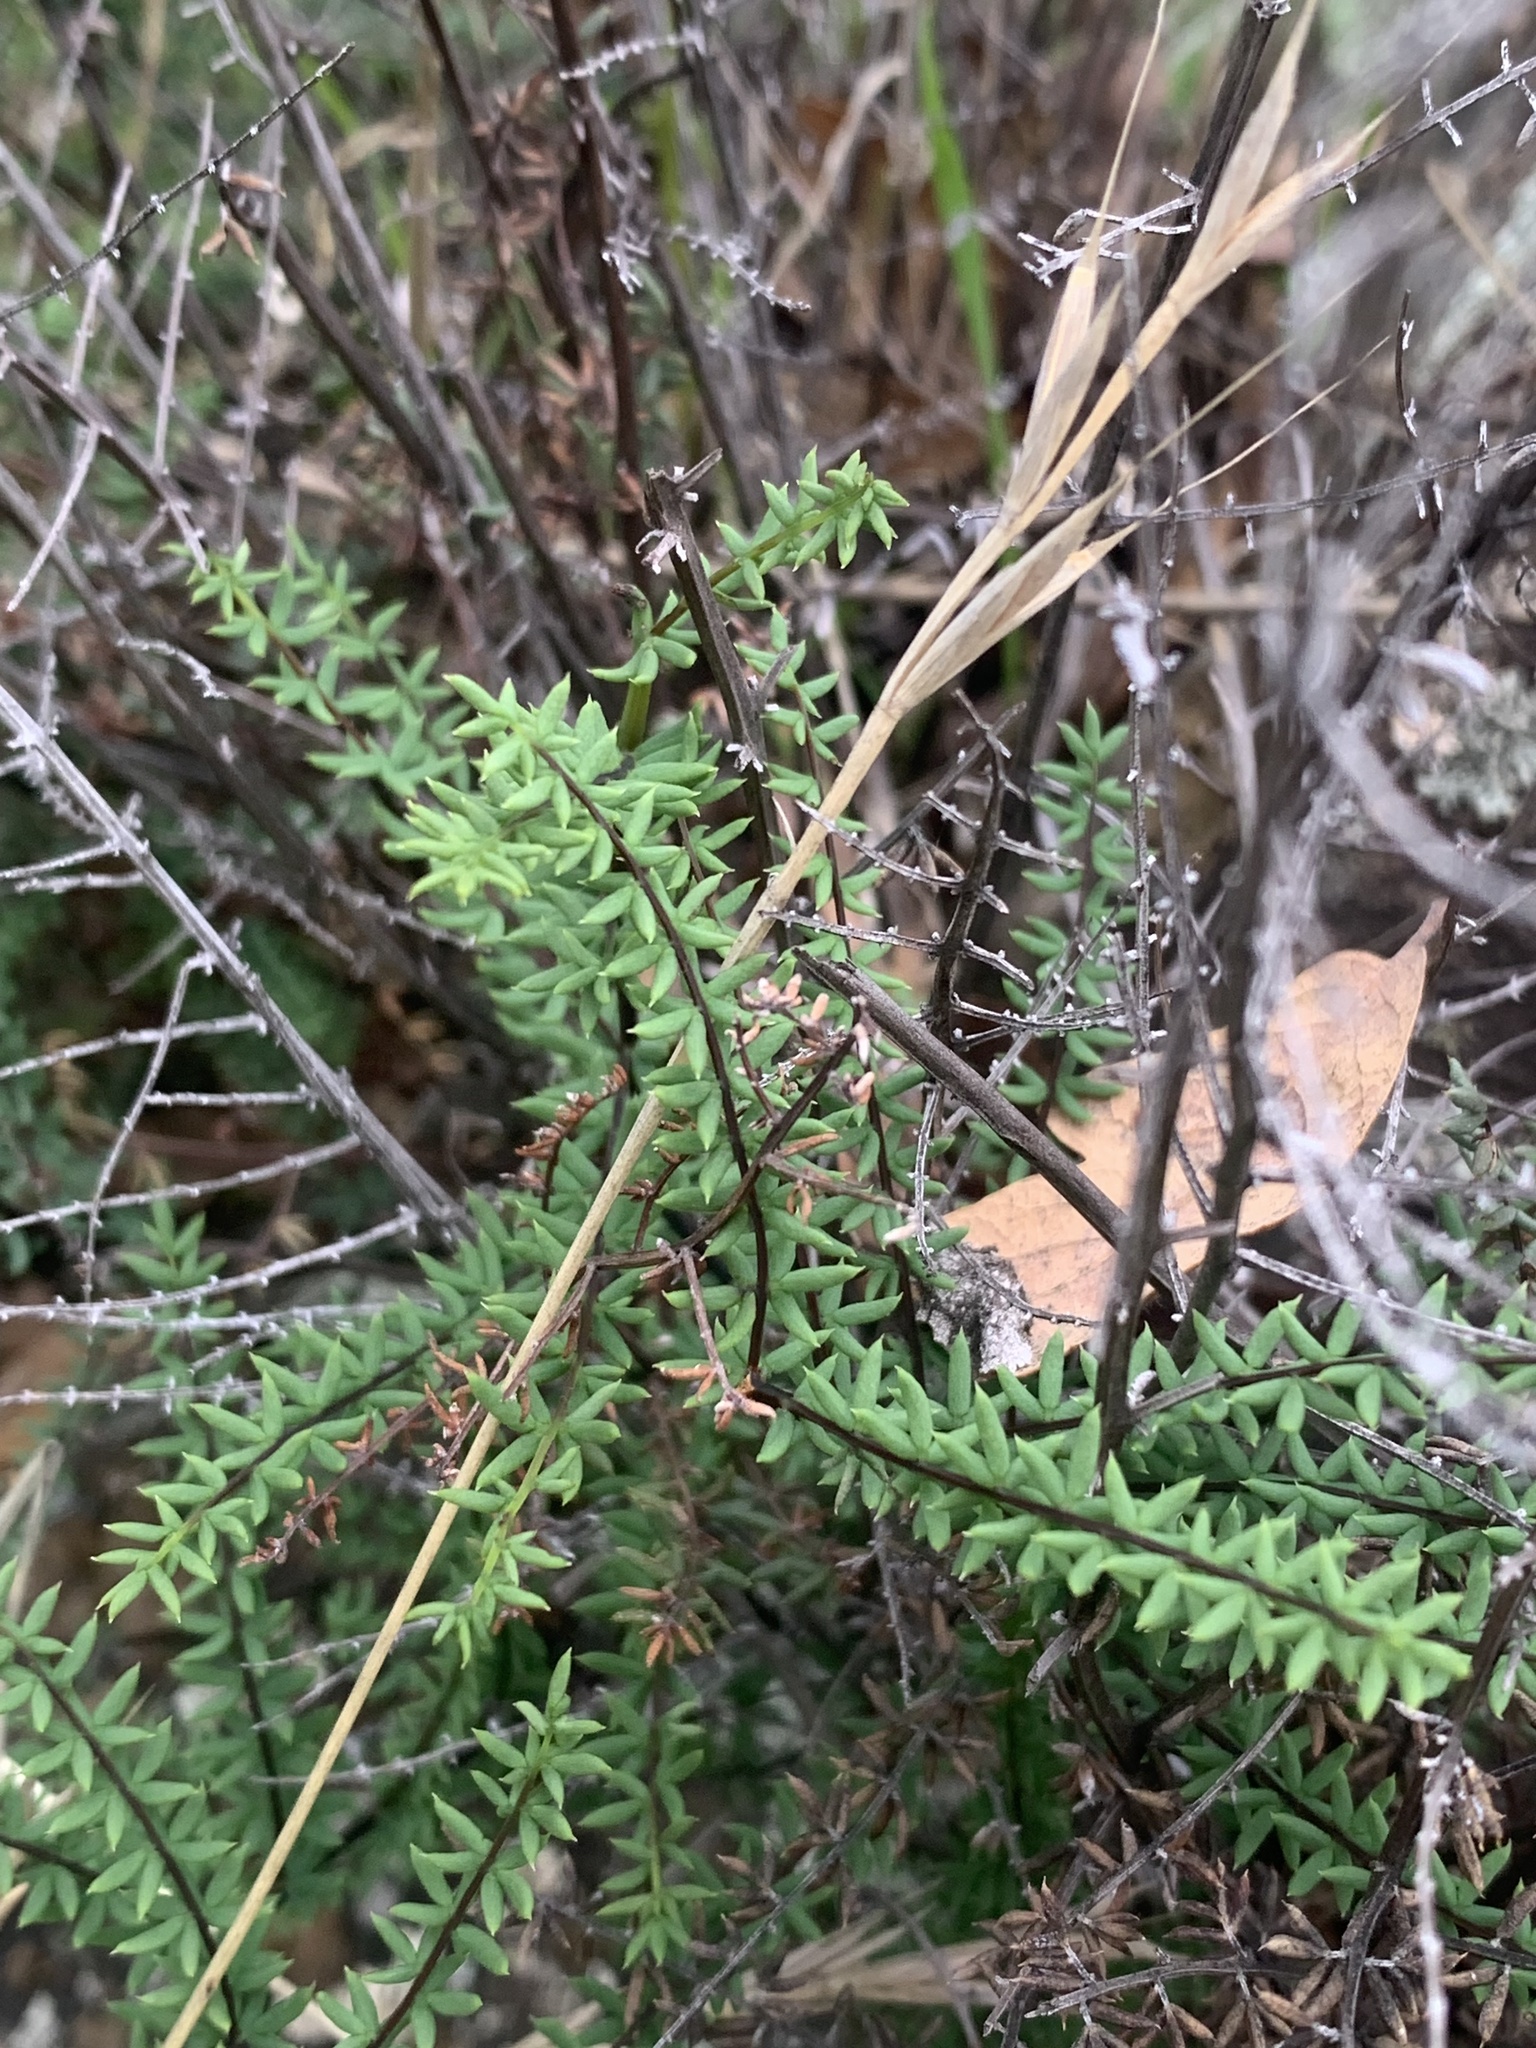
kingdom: Plantae
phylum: Tracheophyta
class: Polypodiopsida
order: Polypodiales
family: Pteridaceae
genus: Pellaea
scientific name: Pellaea mucronata
